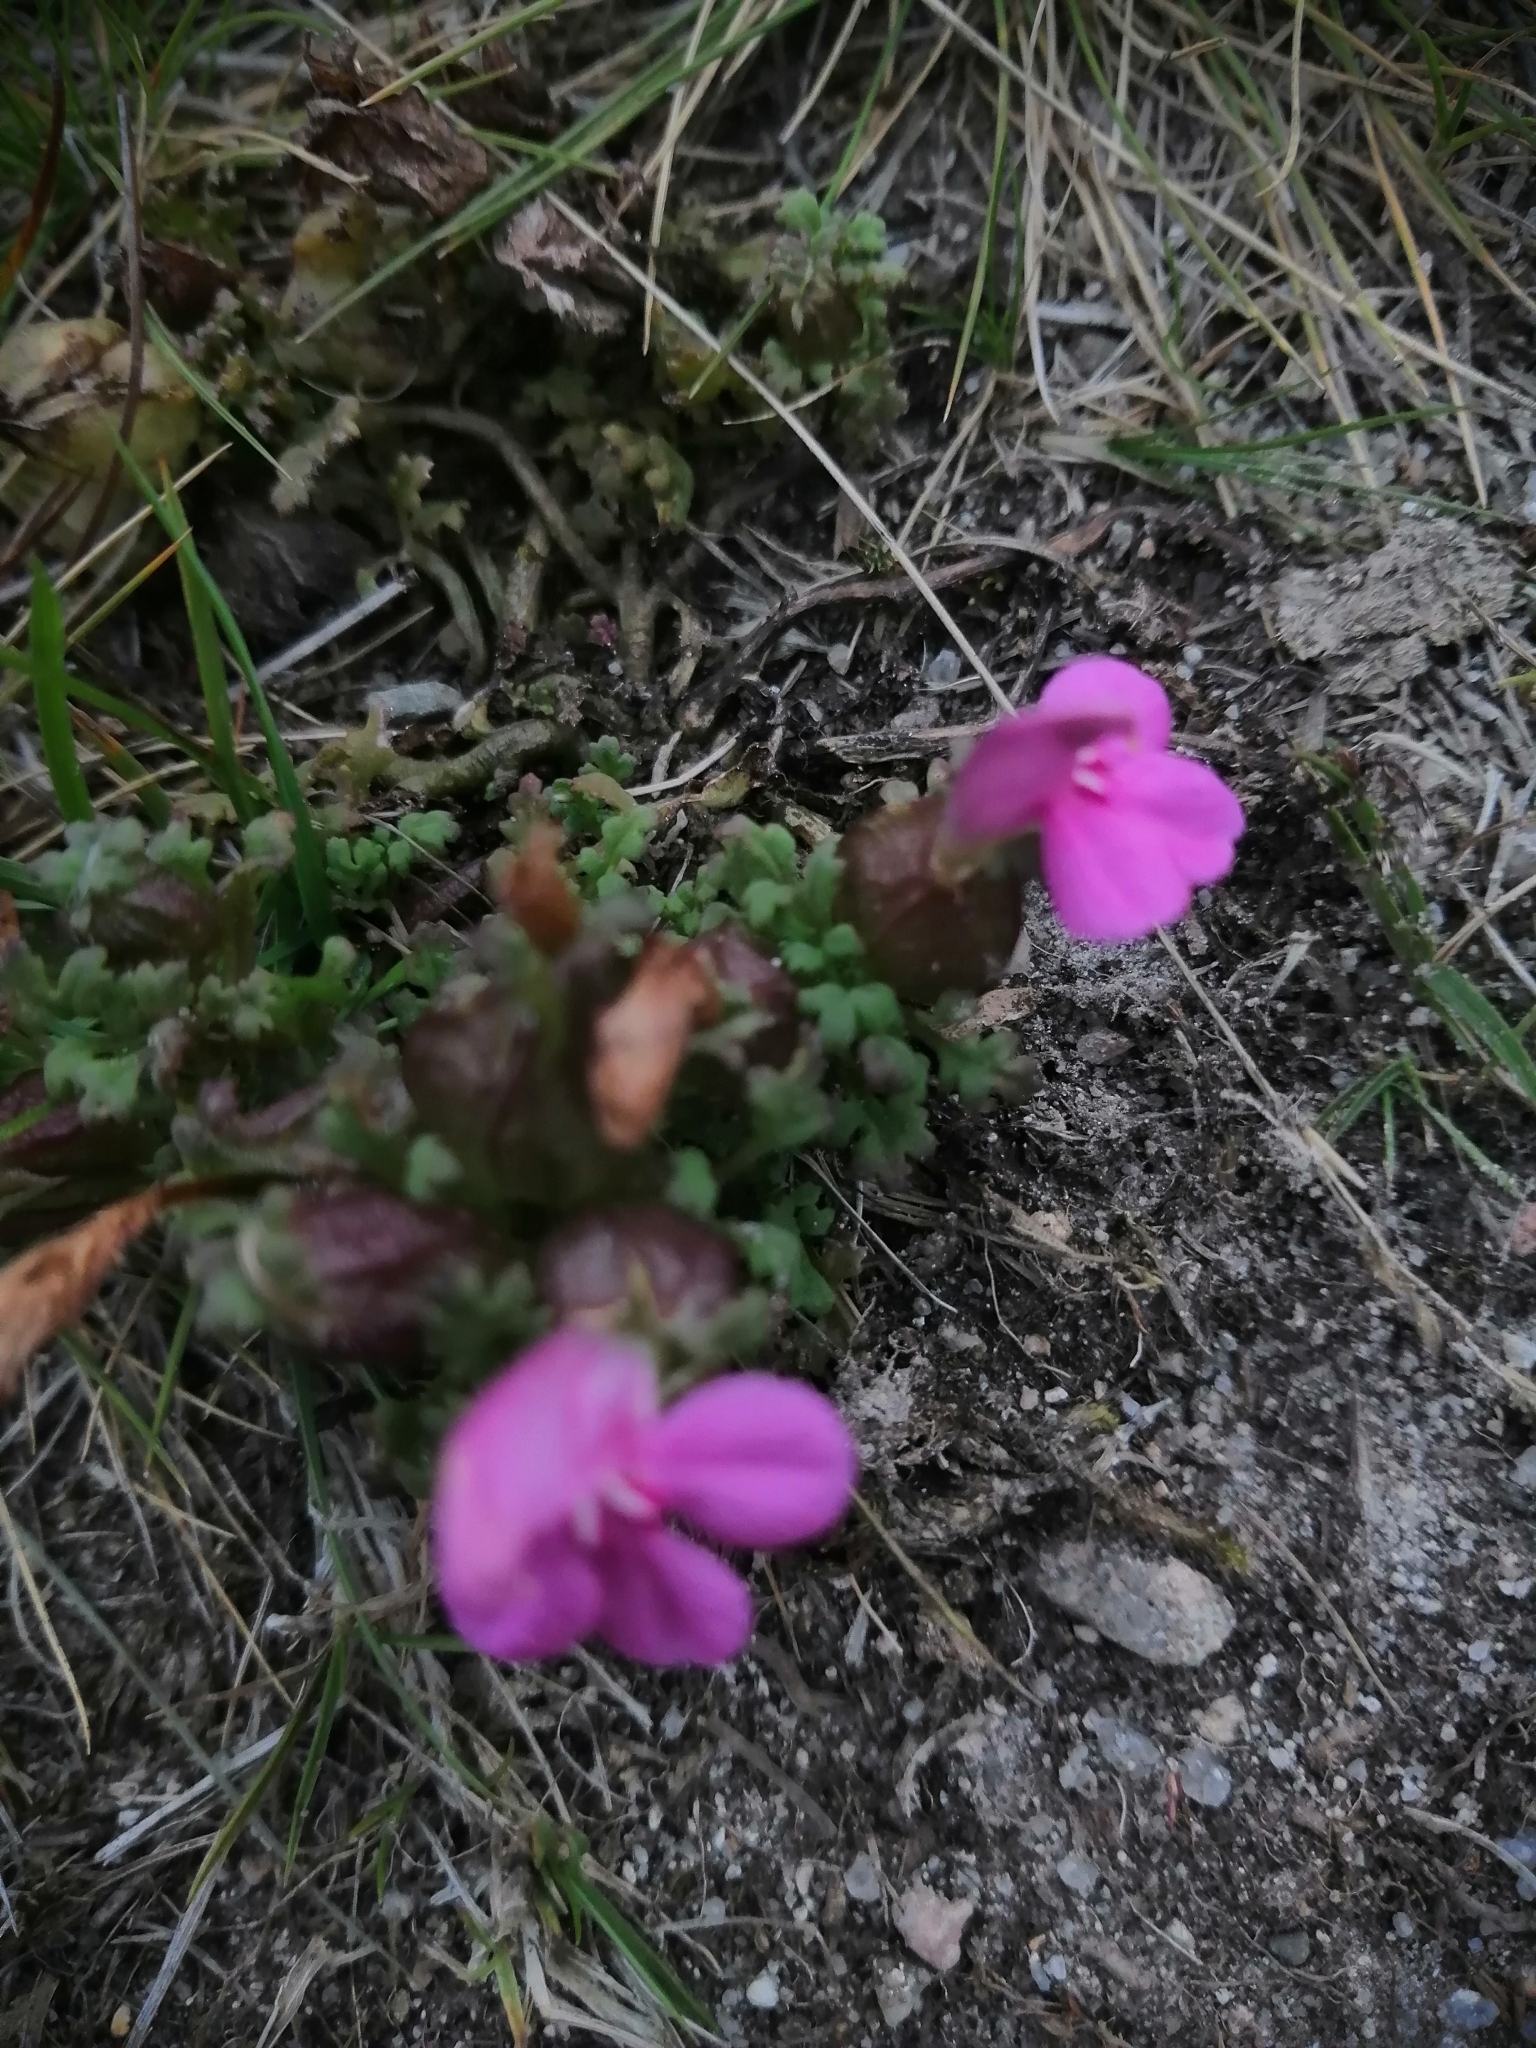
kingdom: Plantae
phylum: Tracheophyta
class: Magnoliopsida
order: Lamiales
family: Orobanchaceae
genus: Pedicularis
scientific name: Pedicularis sylvatica
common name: Lousewort
